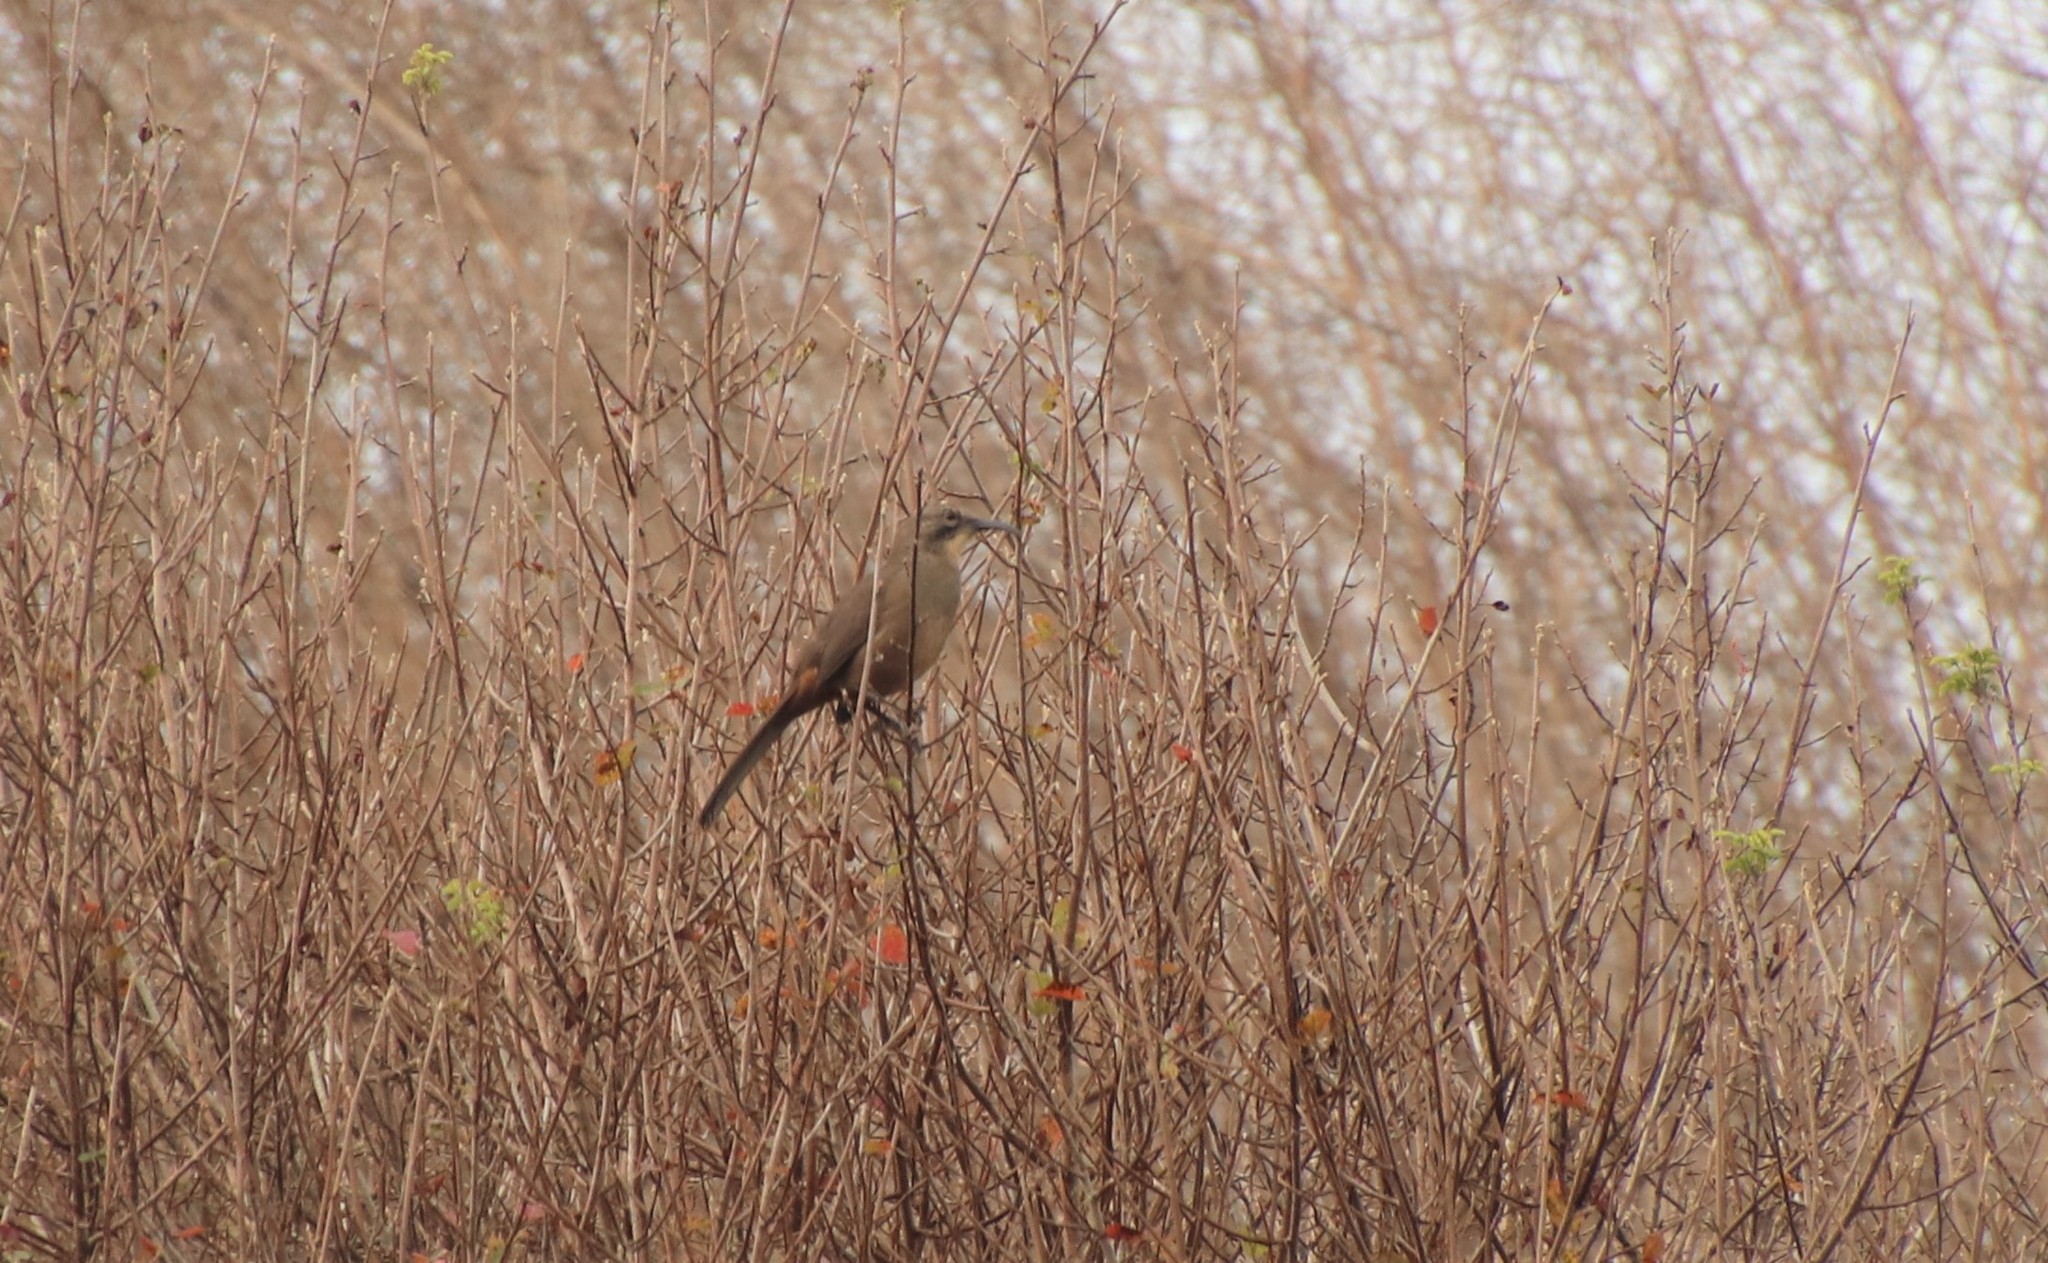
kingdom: Animalia
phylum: Chordata
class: Aves
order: Passeriformes
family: Mimidae
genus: Toxostoma
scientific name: Toxostoma redivivum
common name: California thrasher
